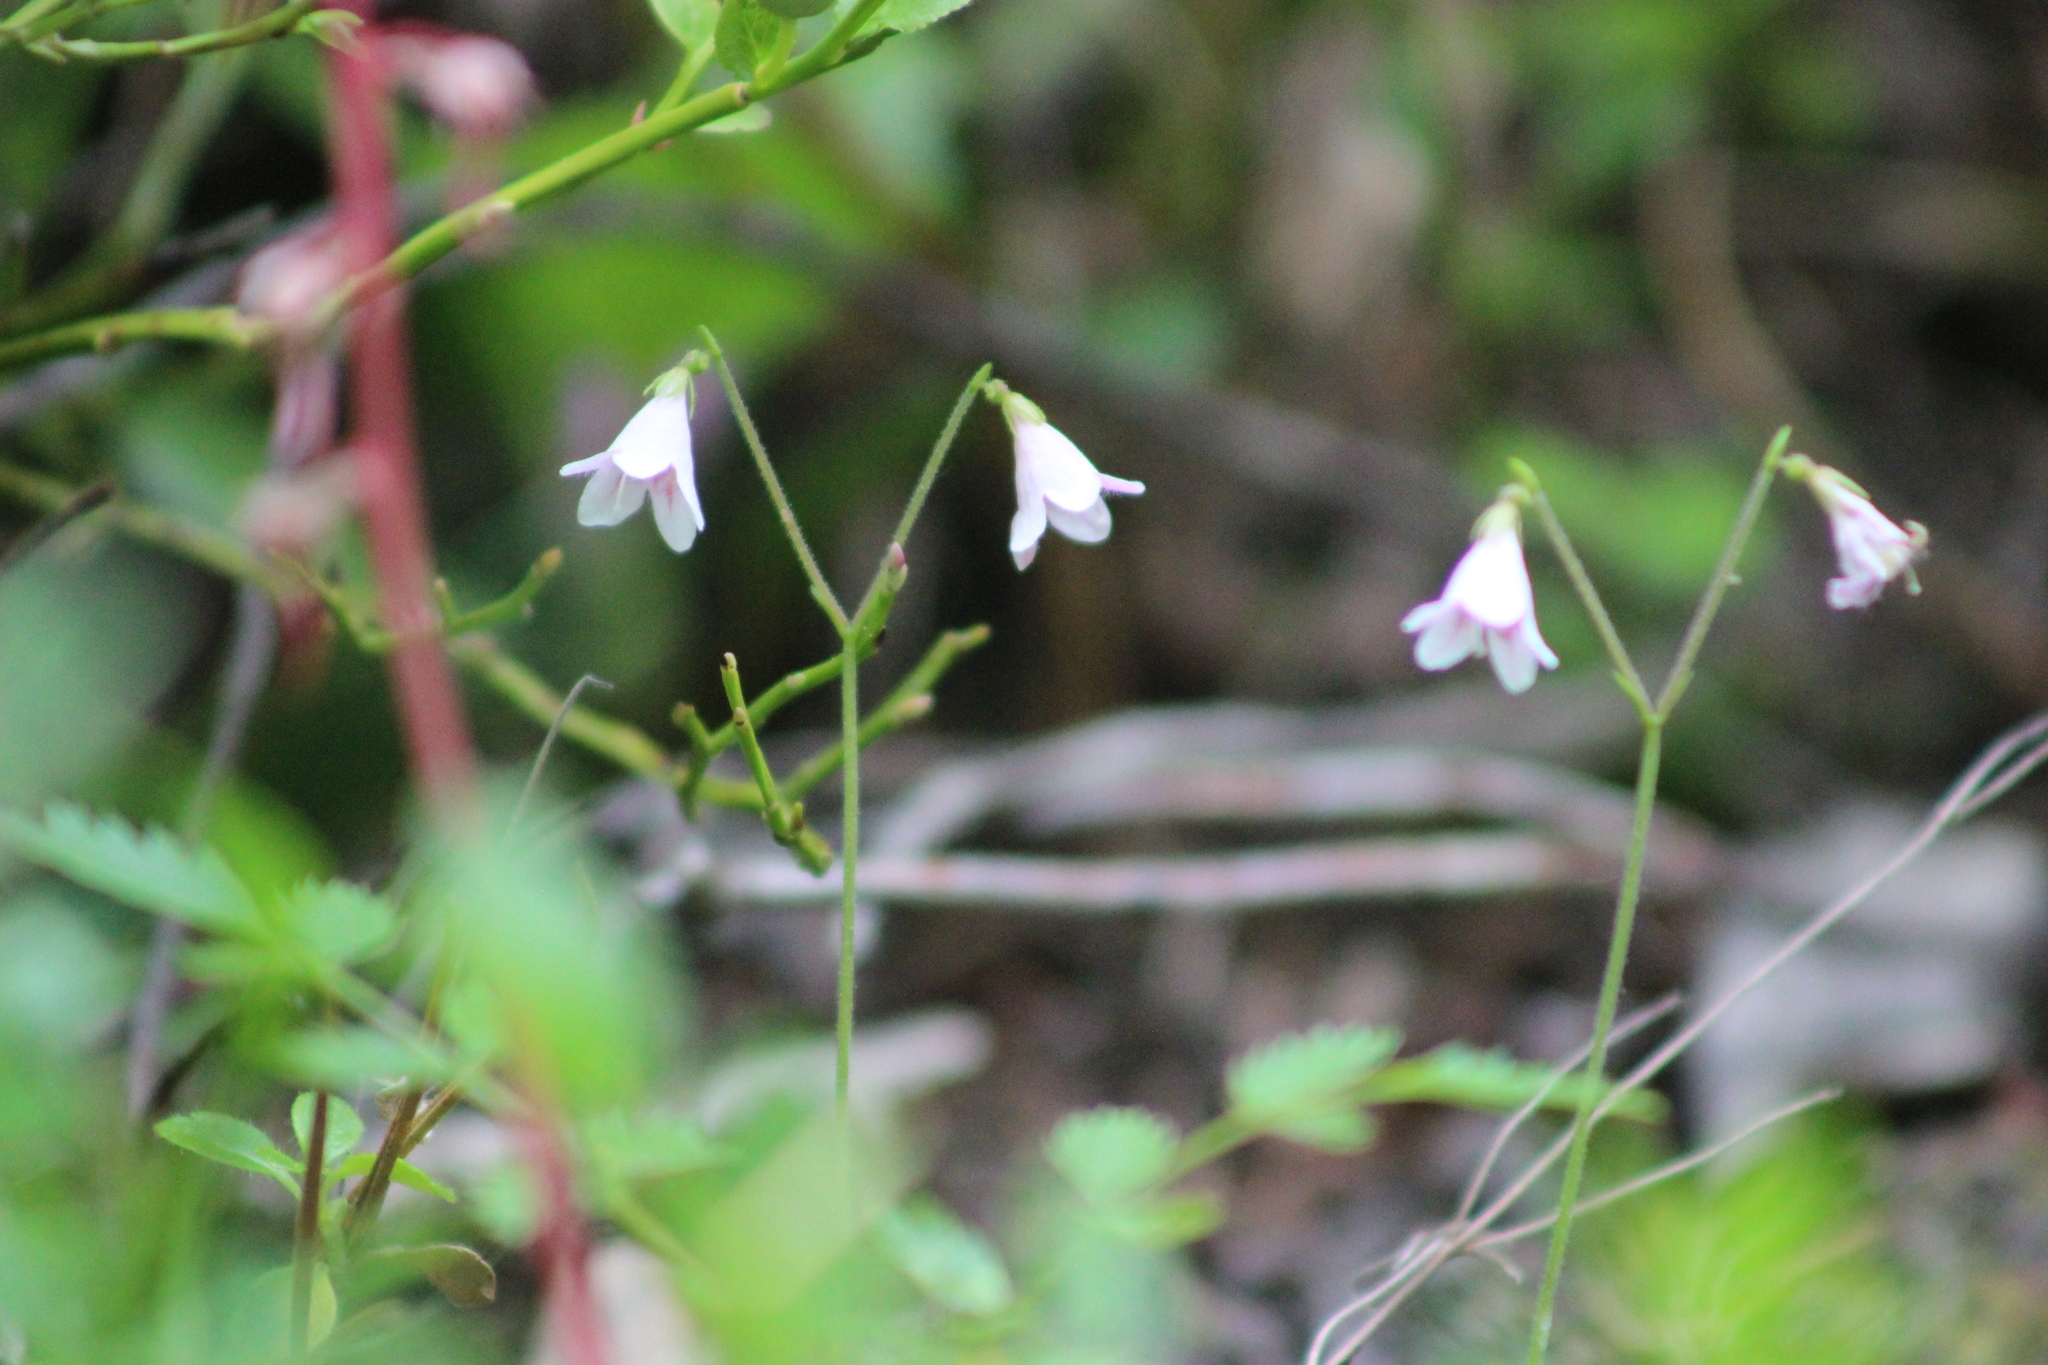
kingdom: Plantae
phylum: Tracheophyta
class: Magnoliopsida
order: Dipsacales
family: Caprifoliaceae
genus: Linnaea
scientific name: Linnaea borealis
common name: Twinflower
